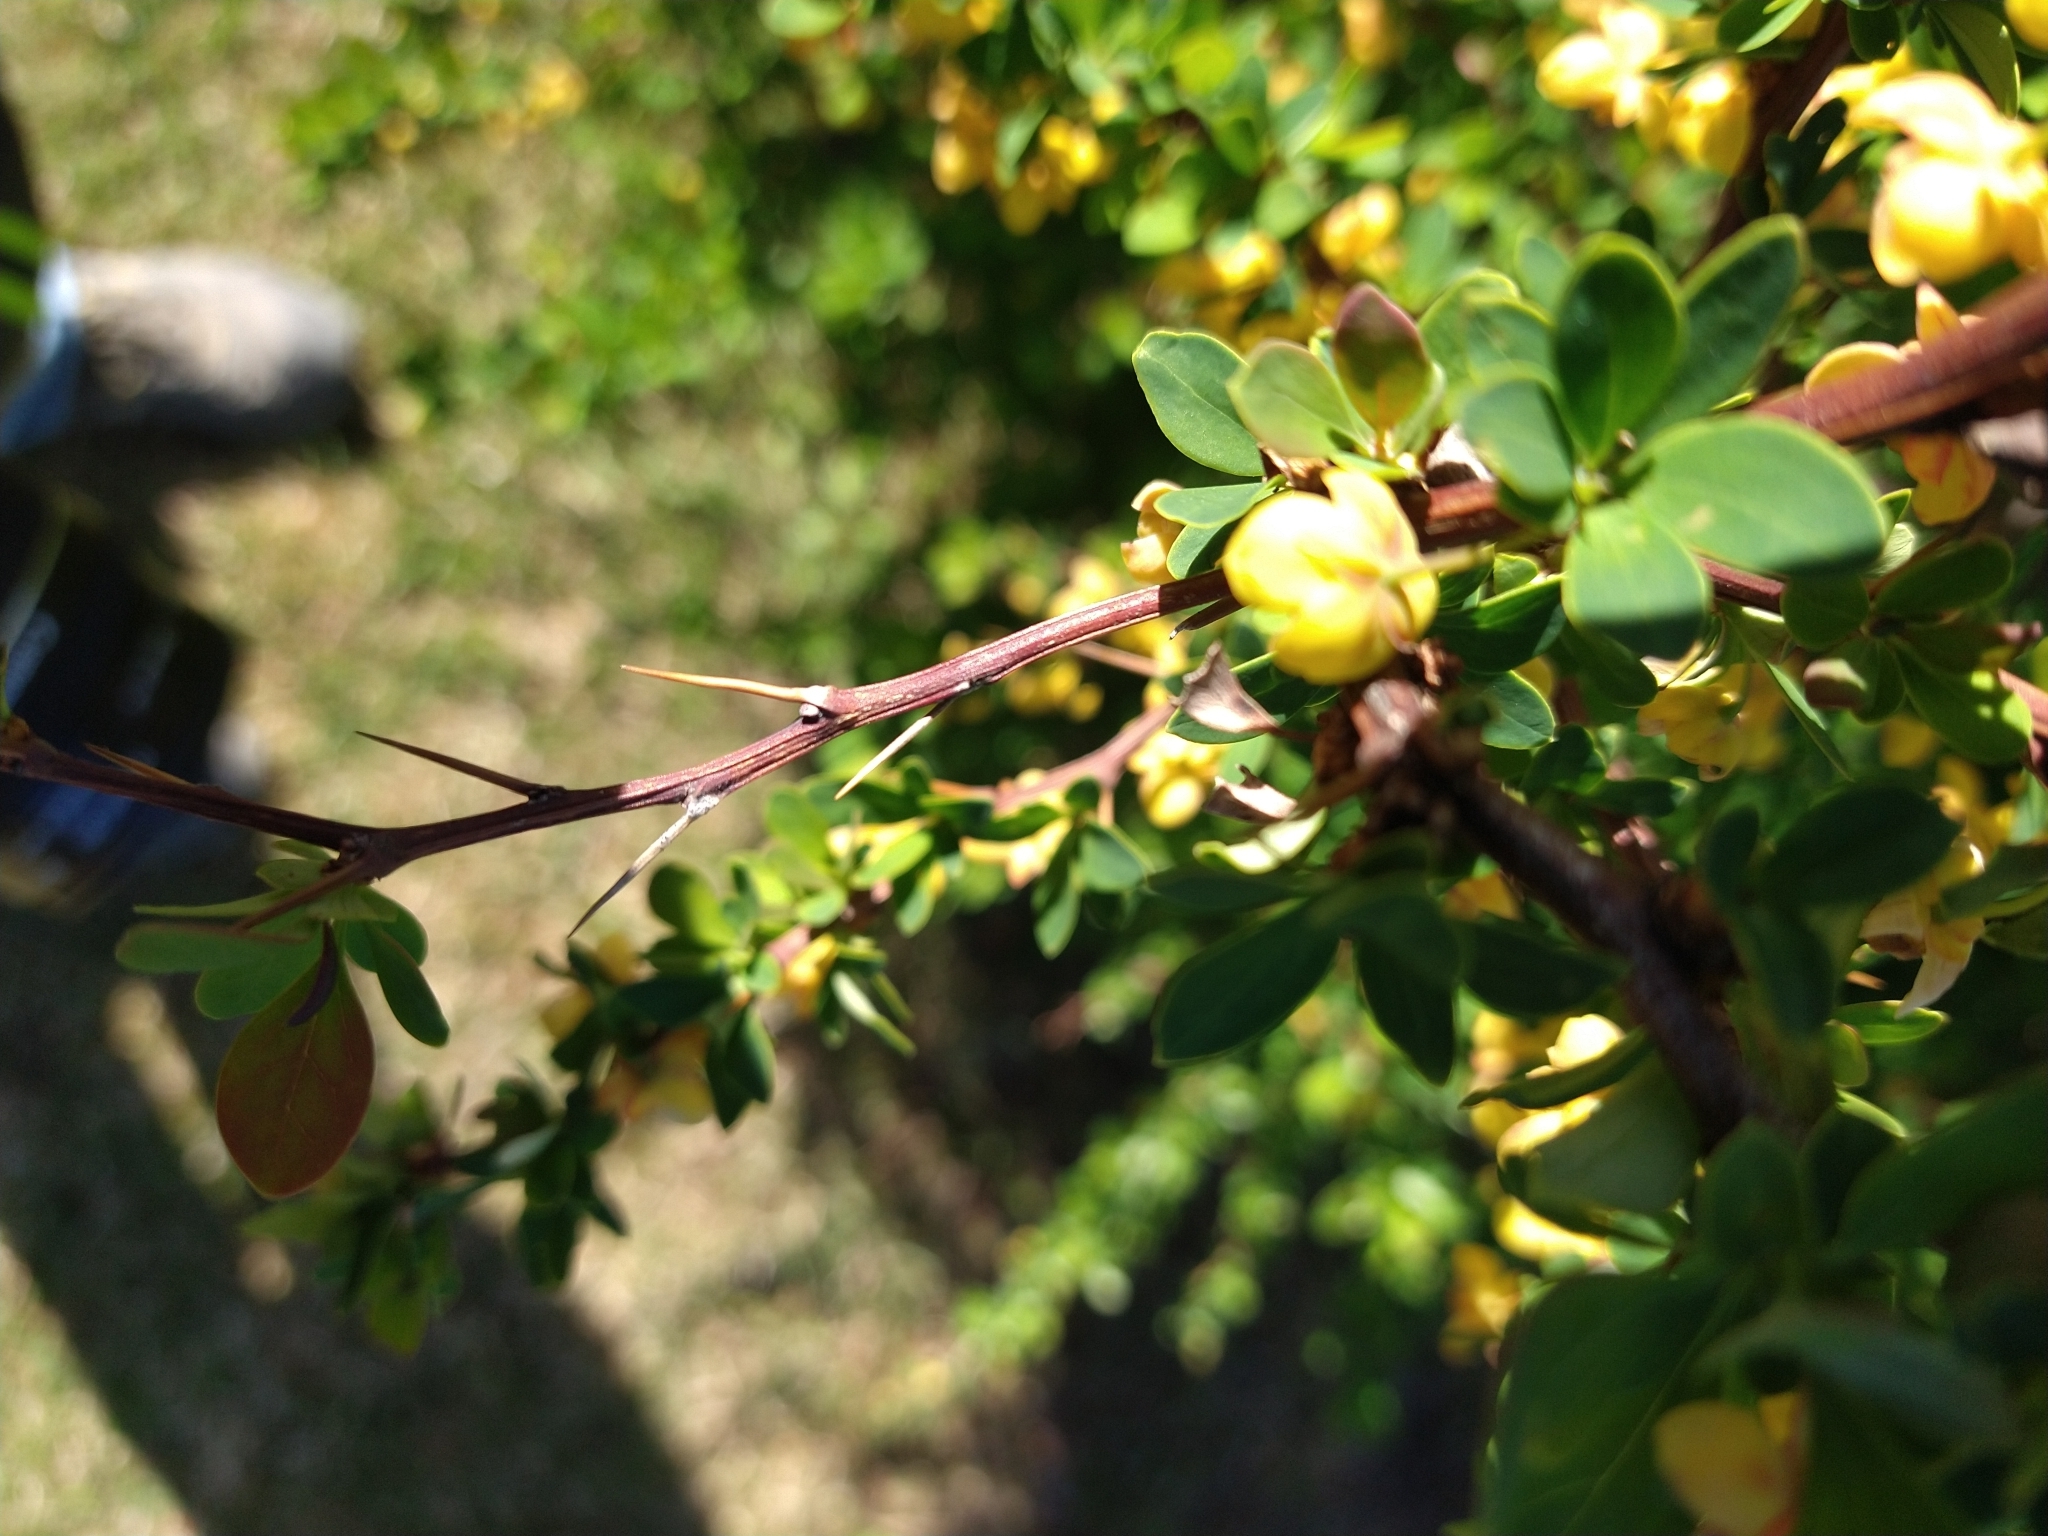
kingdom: Plantae
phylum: Tracheophyta
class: Magnoliopsida
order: Ranunculales
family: Berberidaceae
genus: Berberis
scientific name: Berberis microphylla
